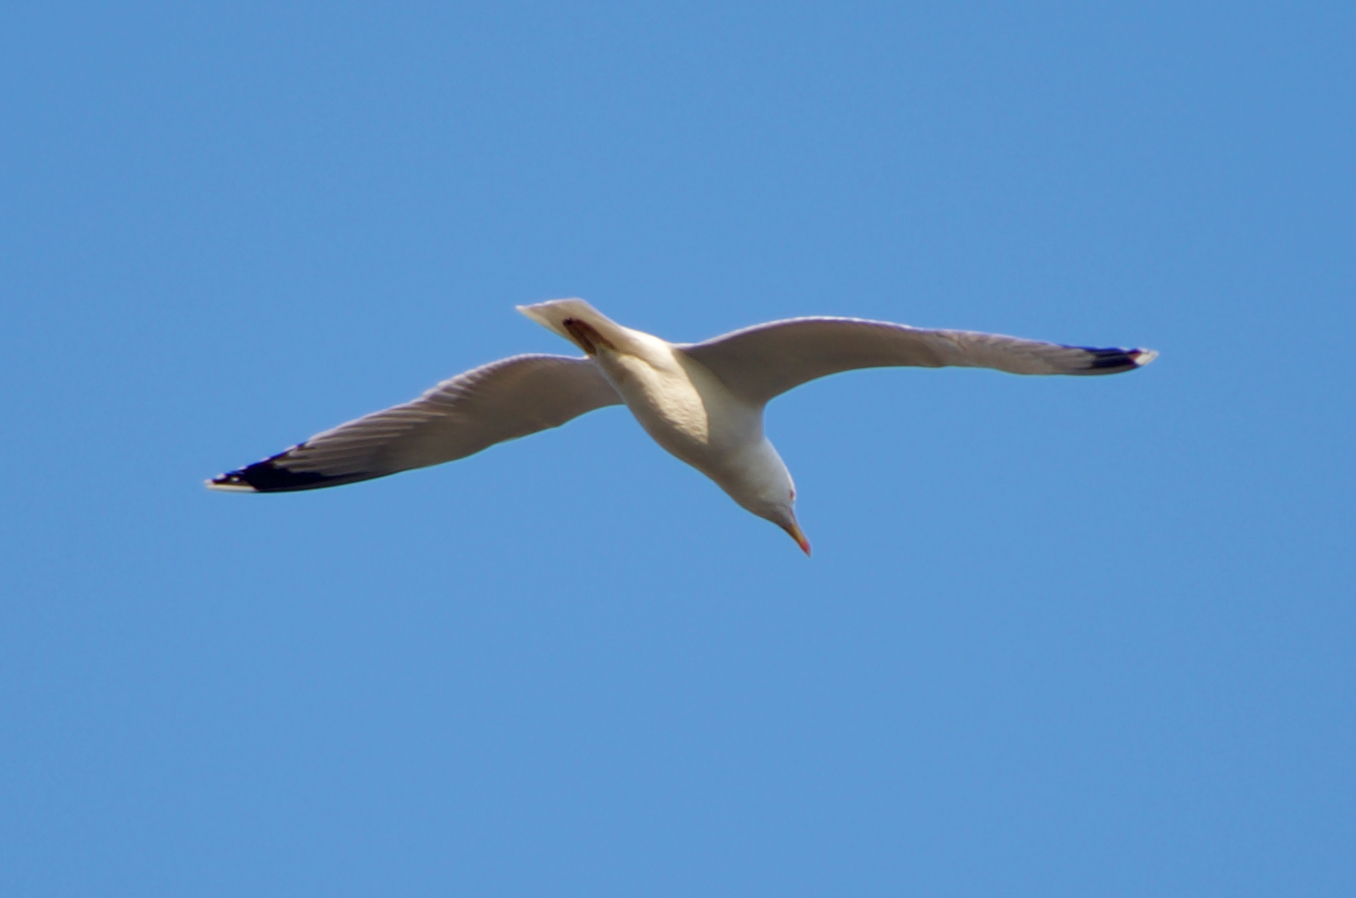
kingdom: Animalia
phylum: Chordata
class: Aves
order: Charadriiformes
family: Laridae
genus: Larus
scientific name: Larus michahellis
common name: Yellow-legged gull
